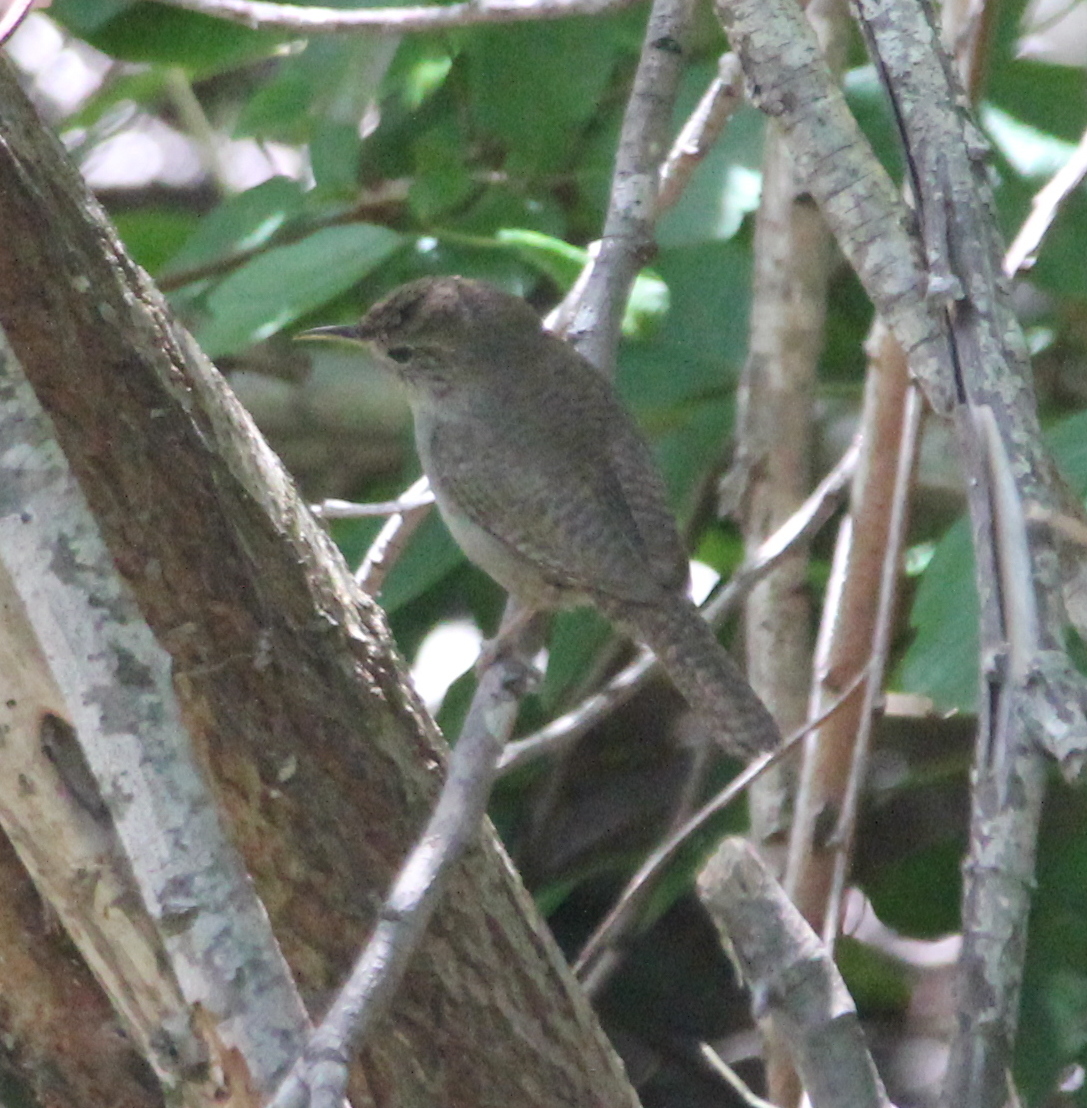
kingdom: Animalia
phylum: Chordata
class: Aves
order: Passeriformes
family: Troglodytidae
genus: Troglodytes
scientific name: Troglodytes aedon
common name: House wren
